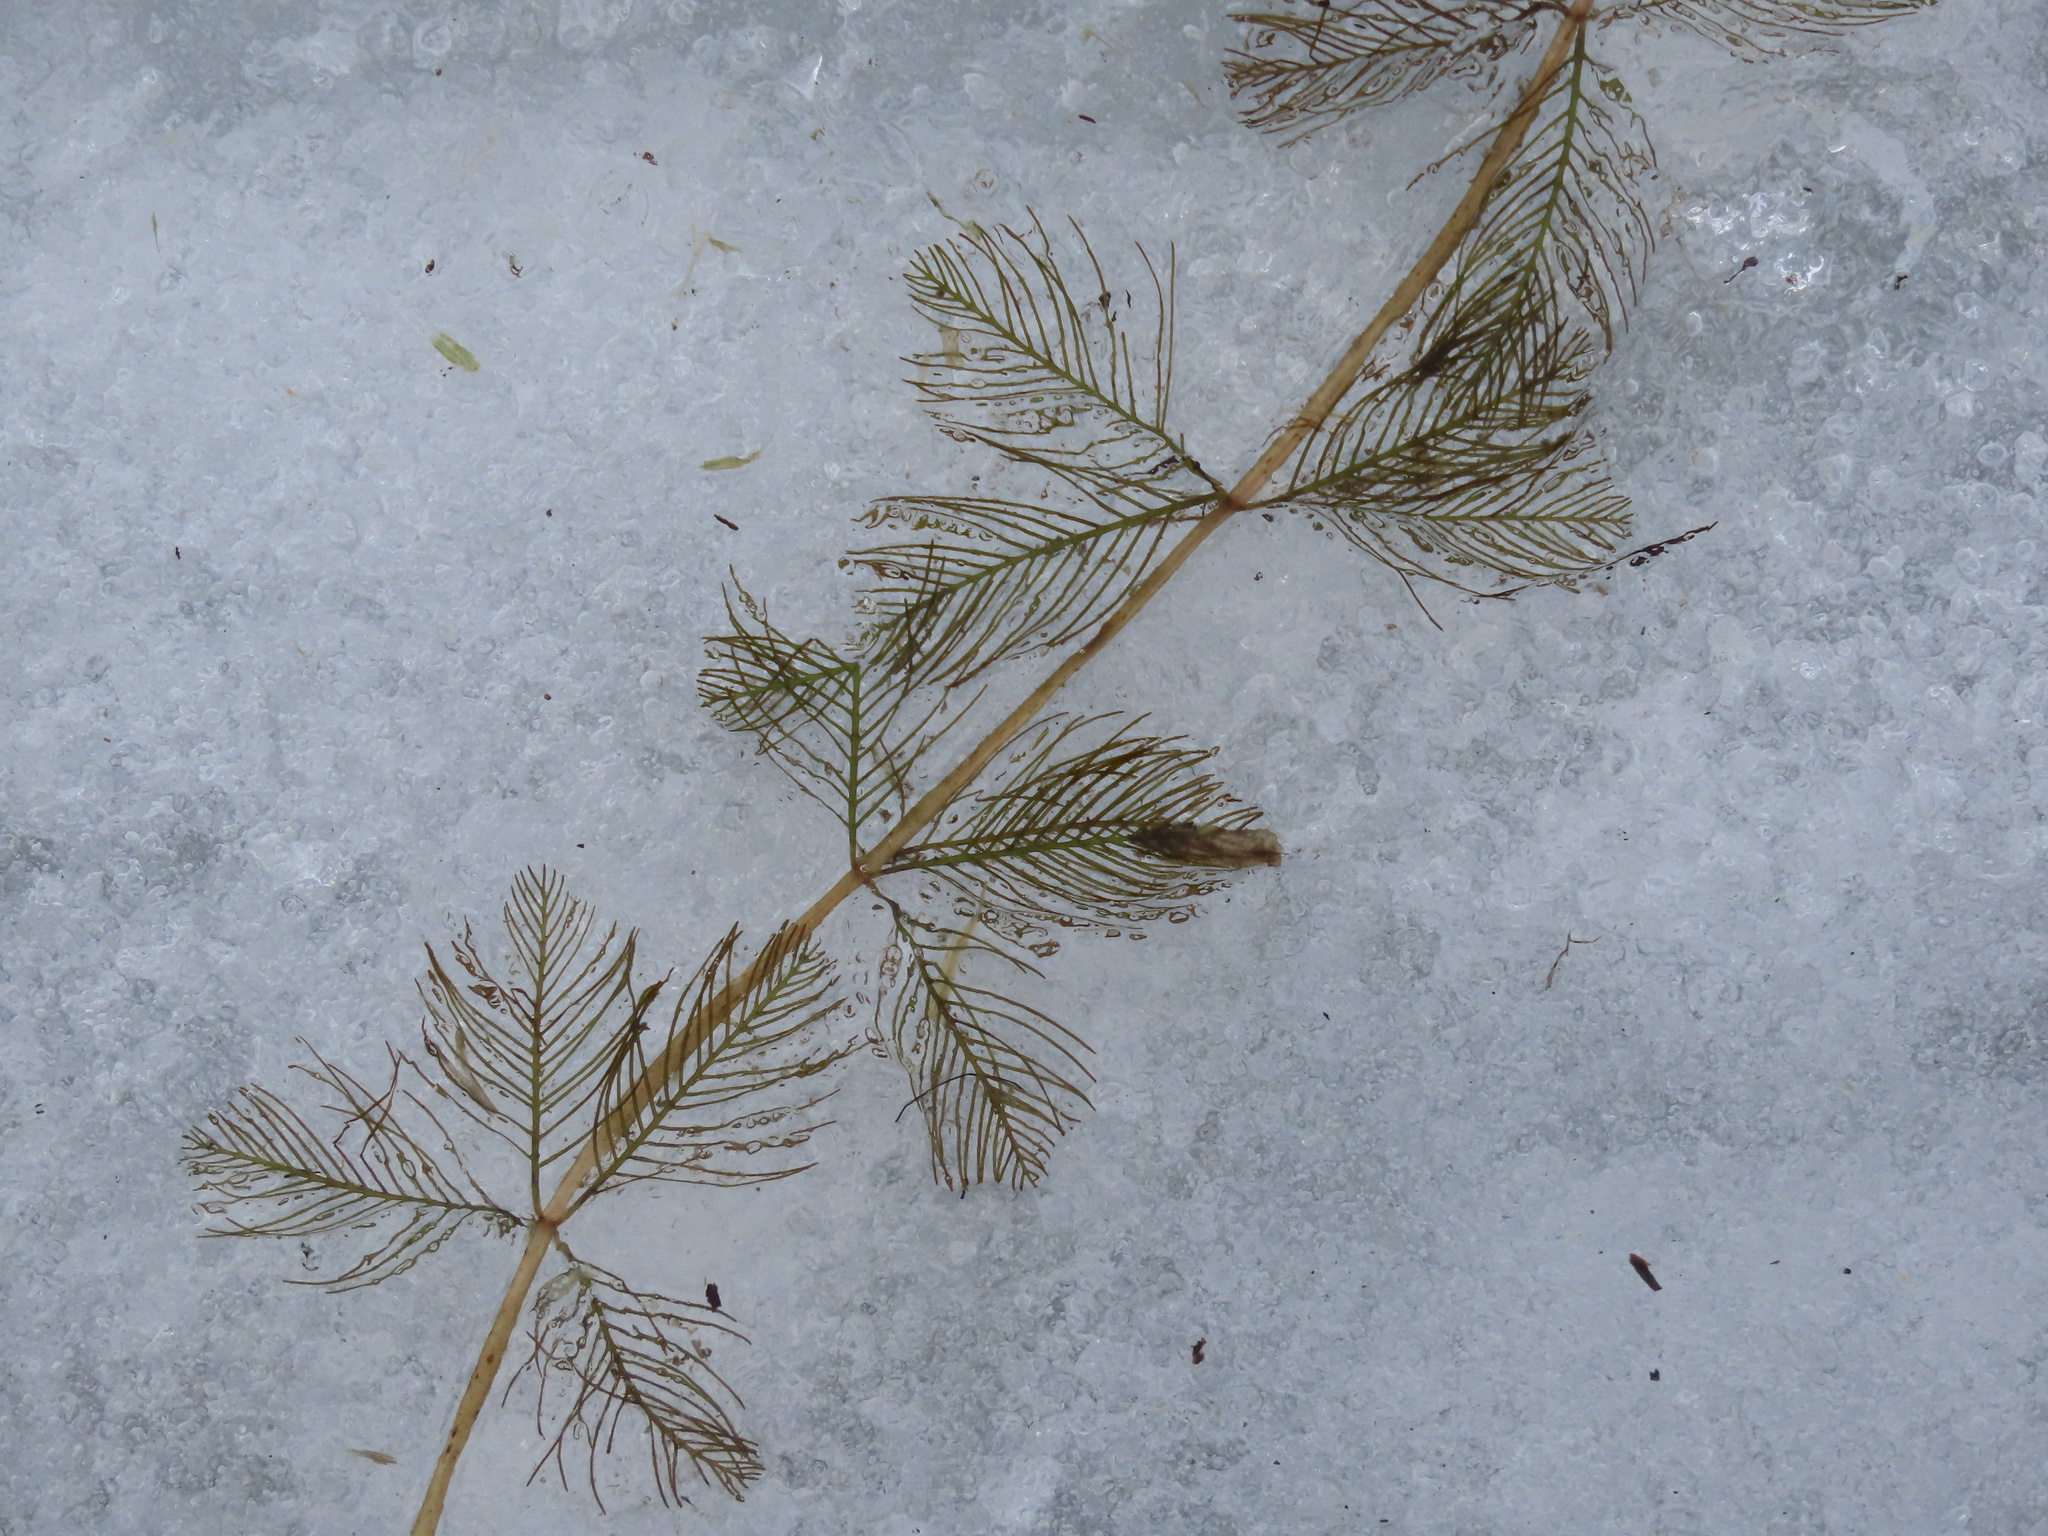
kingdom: Plantae
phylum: Tracheophyta
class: Magnoliopsida
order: Saxifragales
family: Haloragaceae
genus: Myriophyllum
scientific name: Myriophyllum spicatum
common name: Spiked water-milfoil
